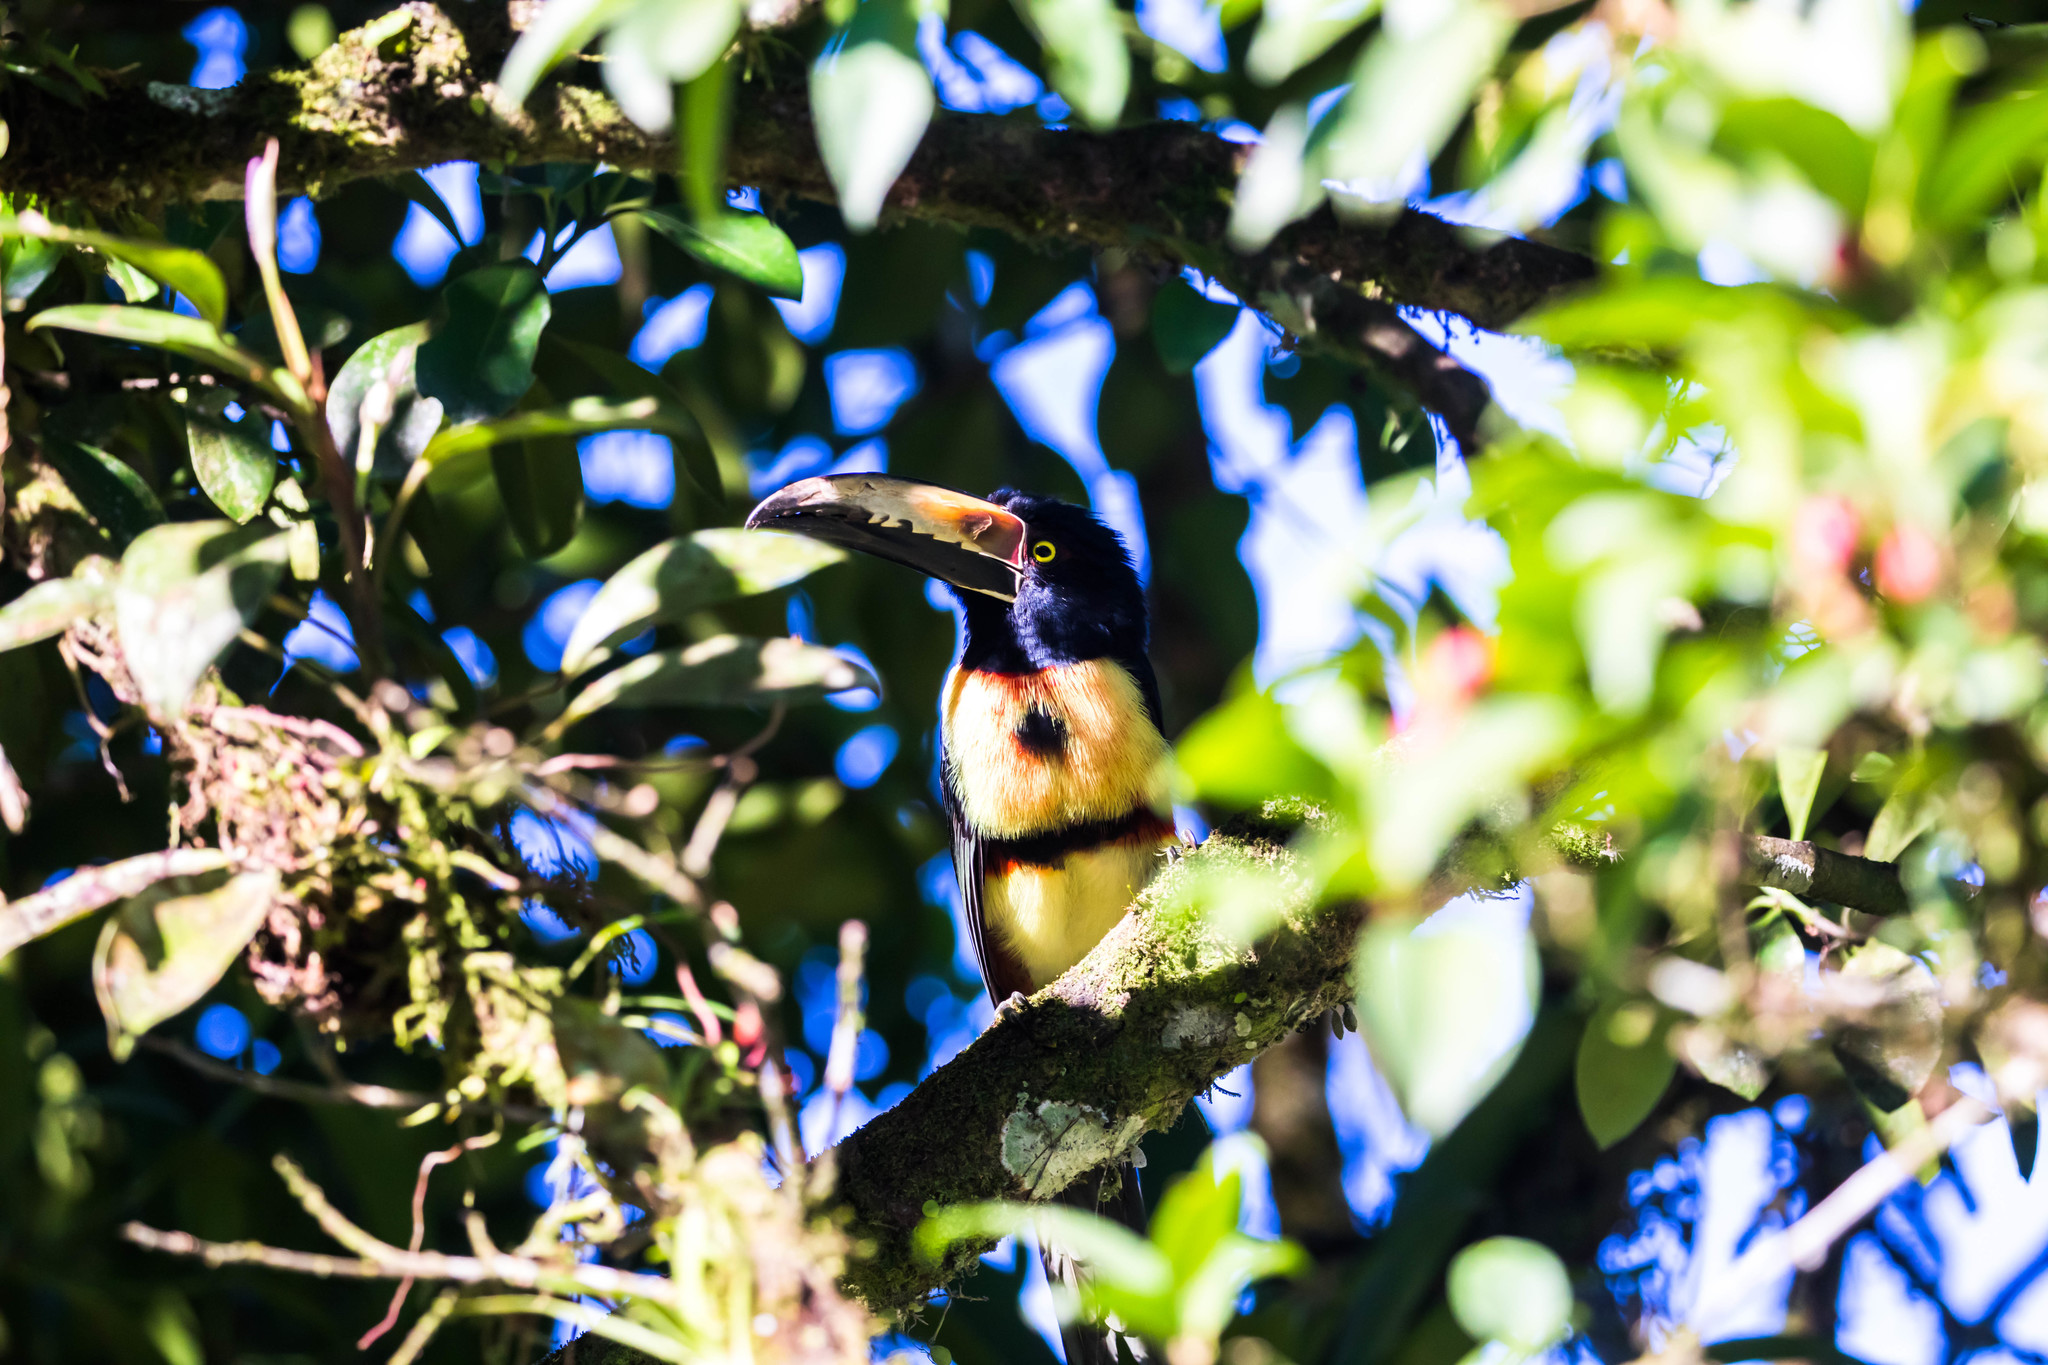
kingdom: Animalia
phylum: Chordata
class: Aves
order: Piciformes
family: Ramphastidae
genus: Pteroglossus
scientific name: Pteroglossus torquatus
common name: Collared aracari
